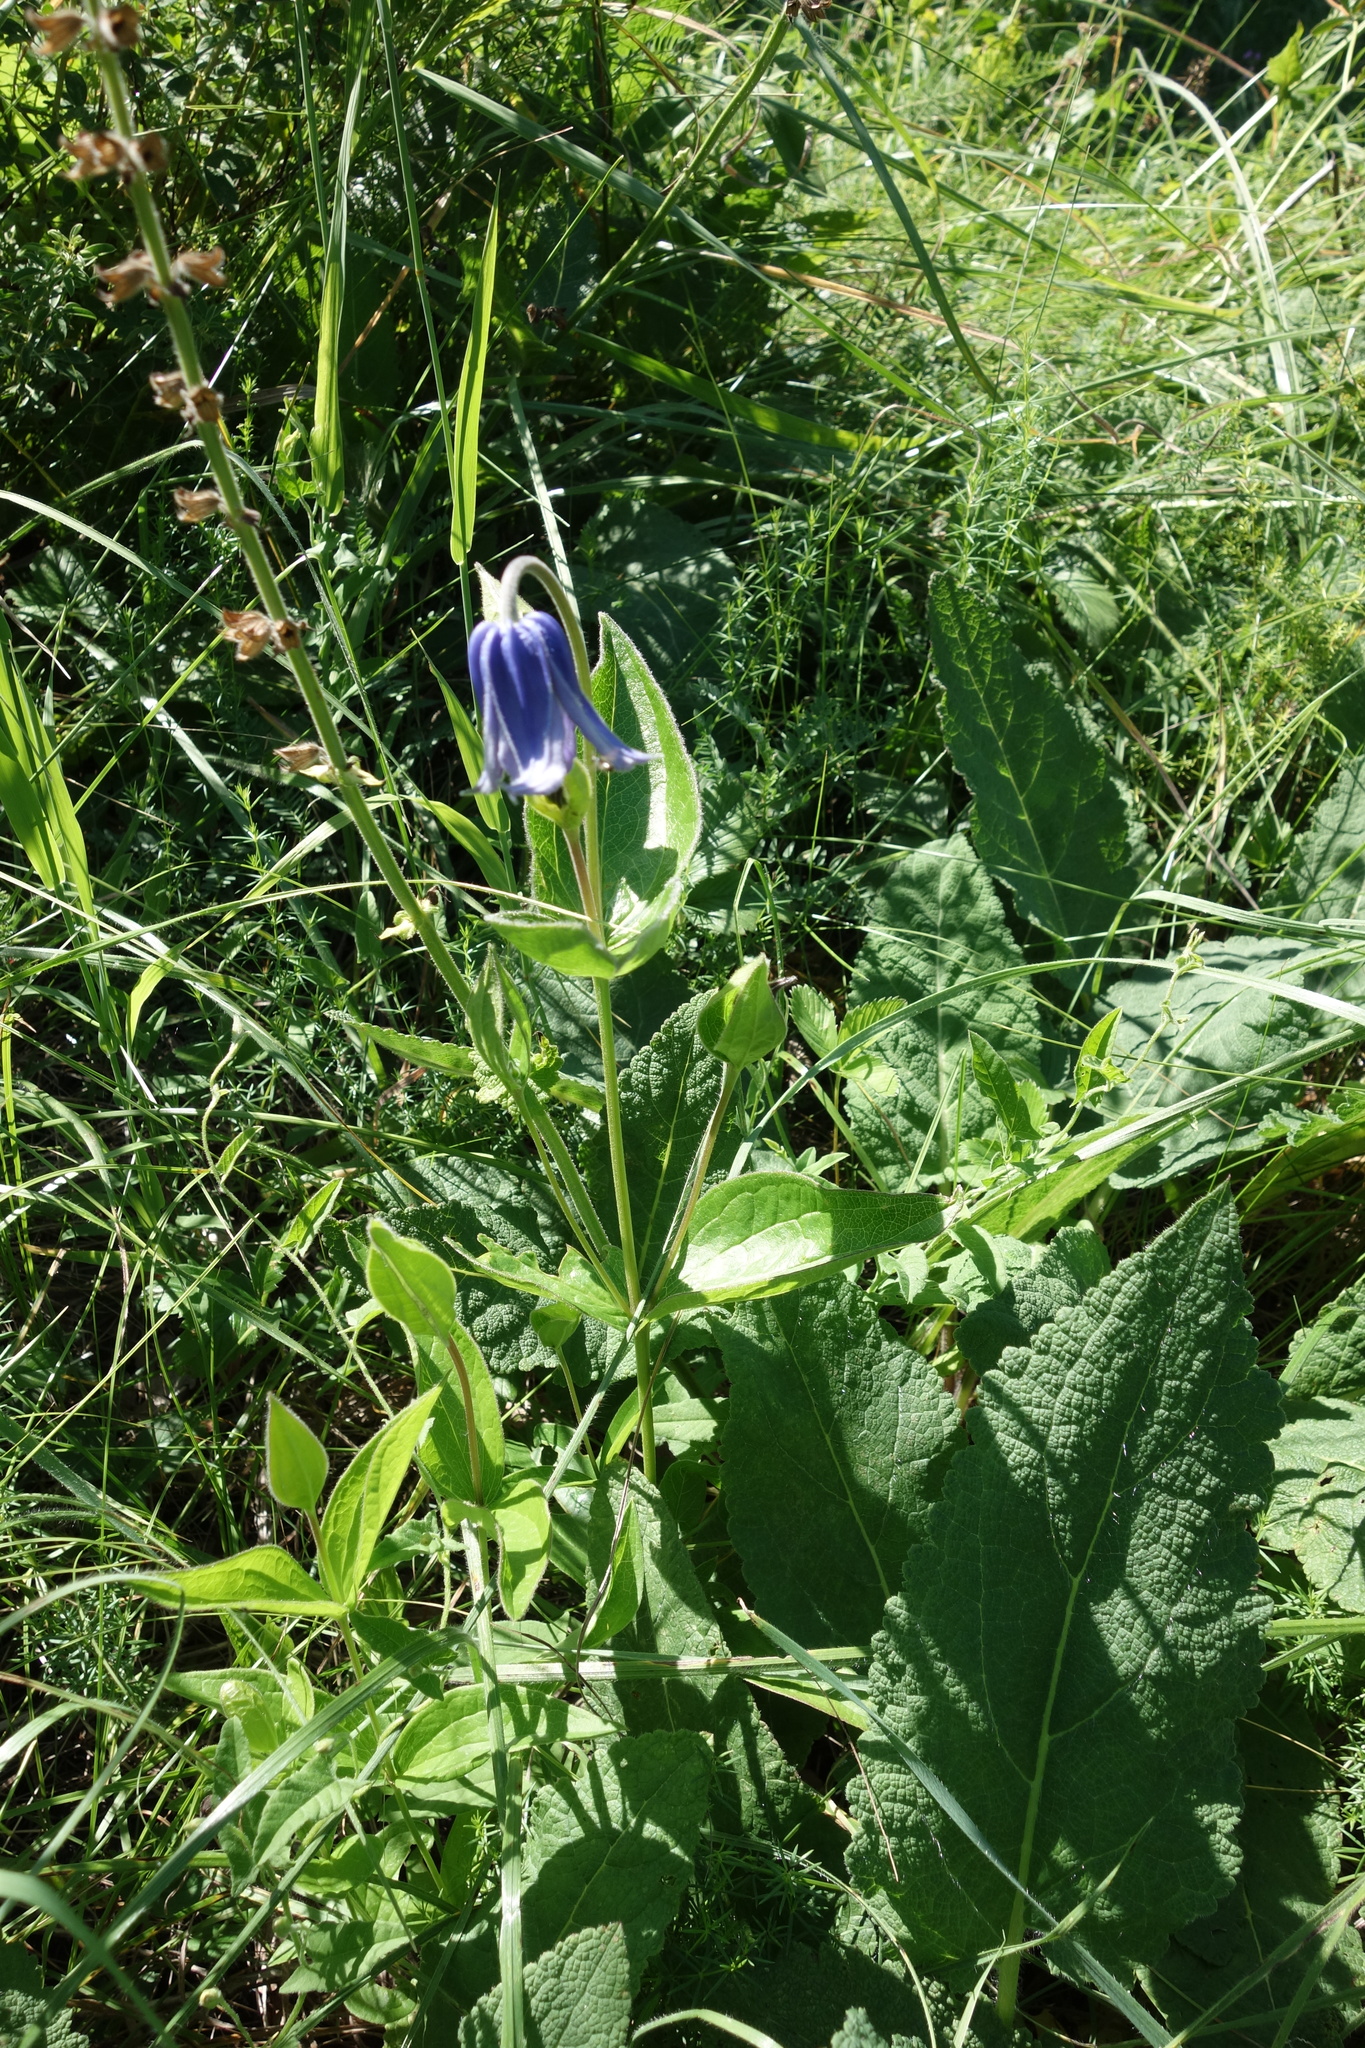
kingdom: Plantae
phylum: Tracheophyta
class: Magnoliopsida
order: Ranunculales
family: Ranunculaceae
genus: Clematis
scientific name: Clematis integrifolia
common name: Solitary clematis
